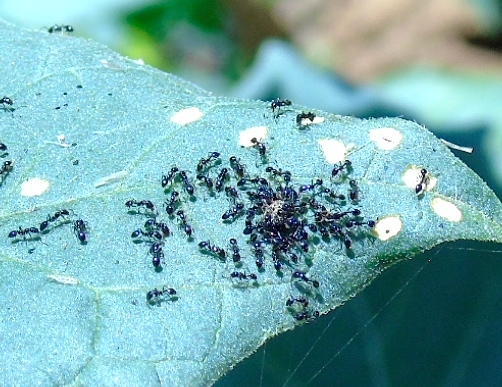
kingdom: Animalia
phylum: Arthropoda
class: Insecta
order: Hymenoptera
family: Formicidae
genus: Monomorium
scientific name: Monomorium
